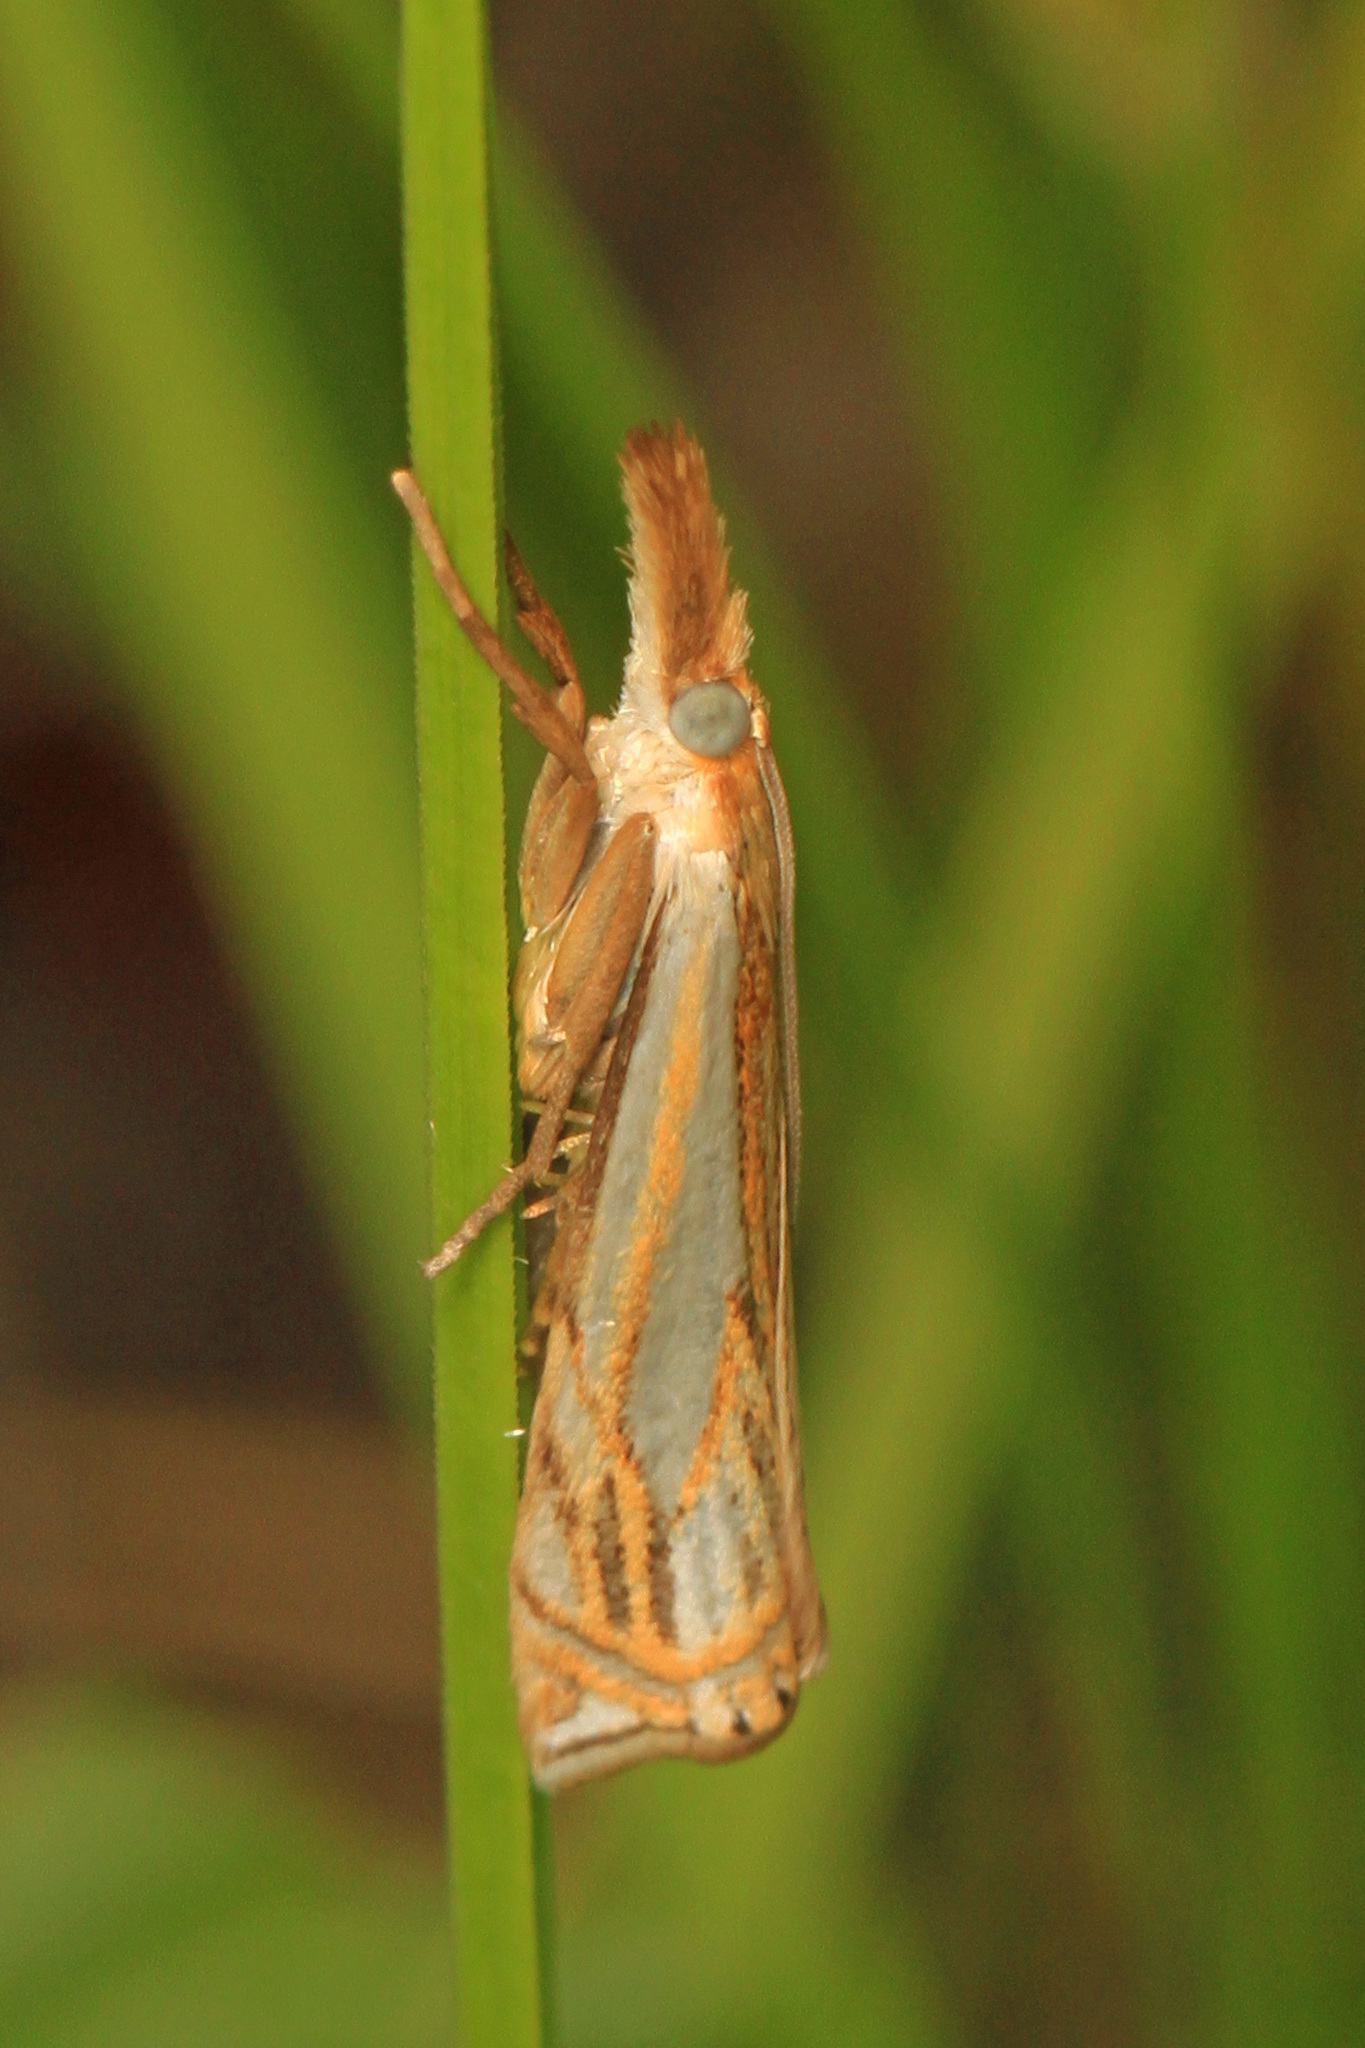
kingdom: Animalia
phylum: Arthropoda
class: Insecta
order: Lepidoptera
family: Crambidae
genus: Crambus
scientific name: Crambus saltuellus
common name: Pasture grass-veneer
